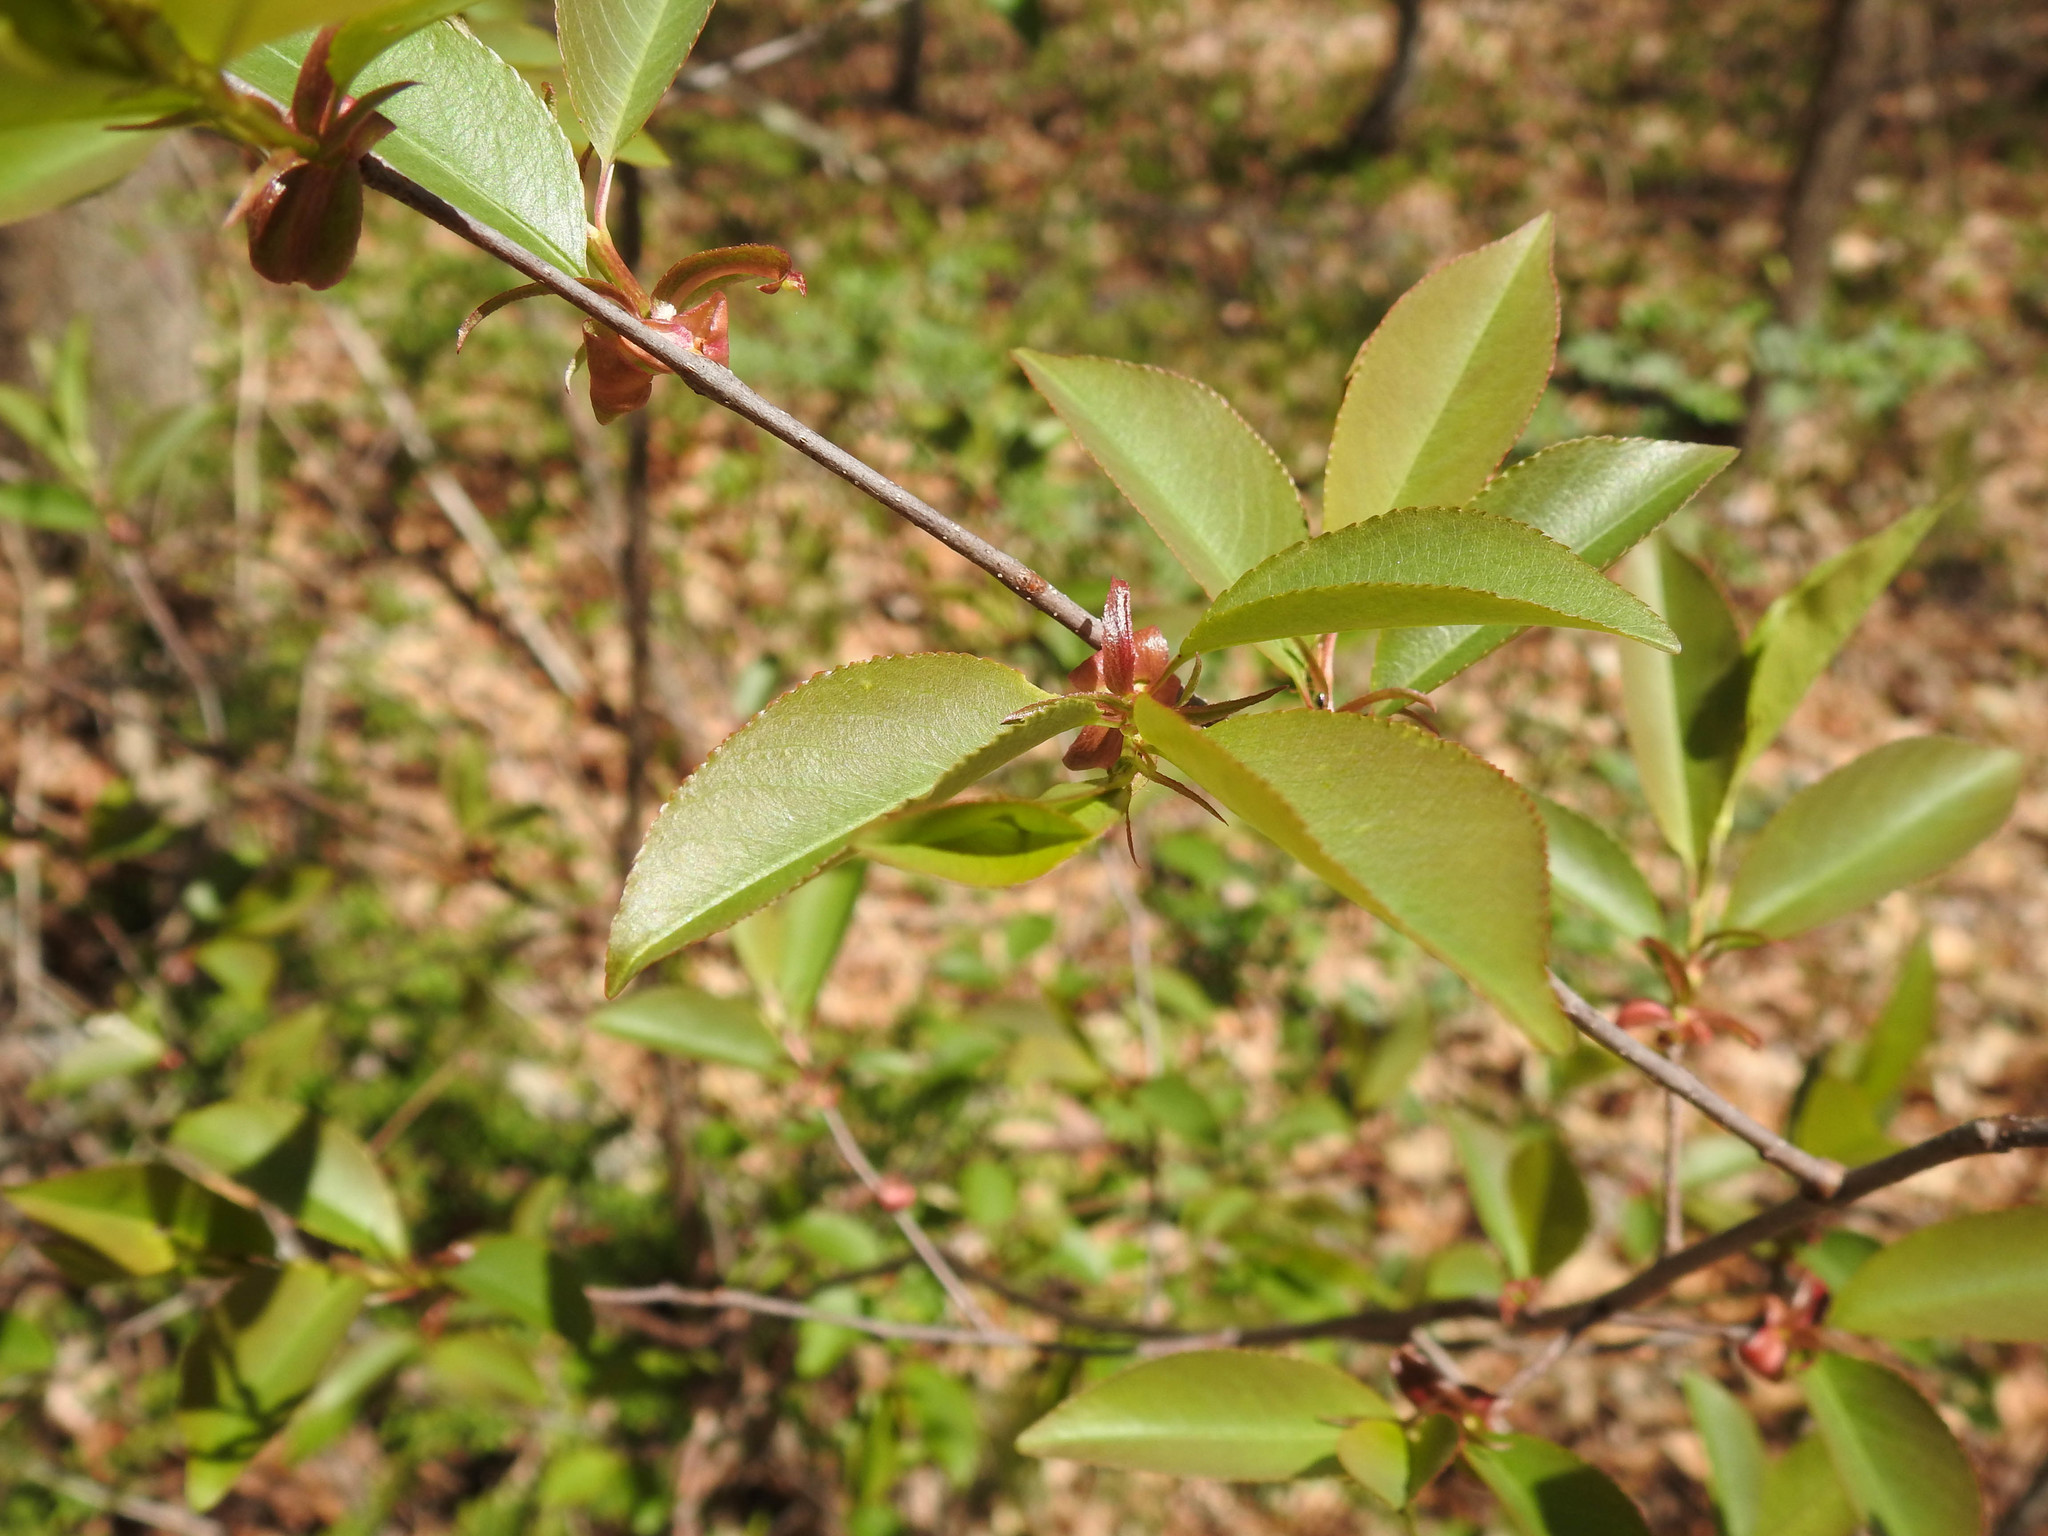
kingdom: Plantae
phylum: Tracheophyta
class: Magnoliopsida
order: Rosales
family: Rosaceae
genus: Prunus
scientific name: Prunus serotina
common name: Black cherry
